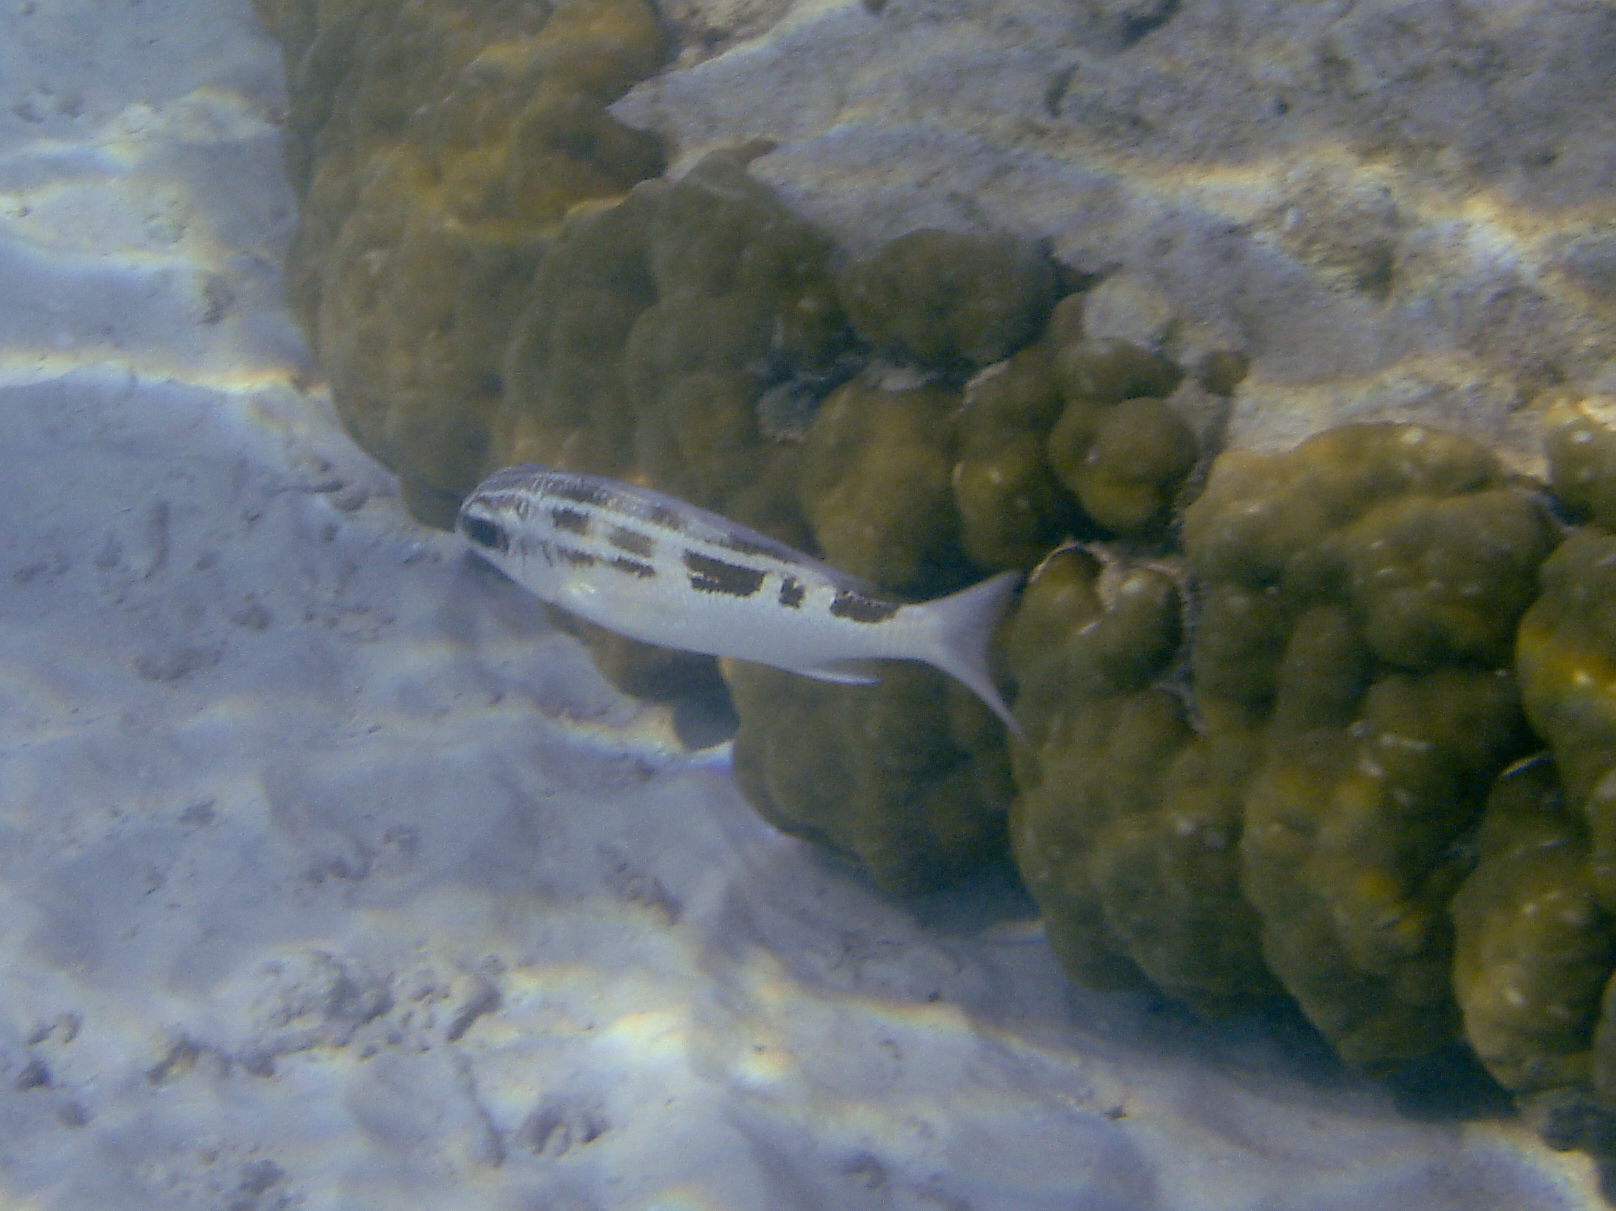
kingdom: Animalia
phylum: Chordata
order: Perciformes
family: Nemipteridae
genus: Scolopsis
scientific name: Scolopsis lineata
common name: Striped monocle bream
